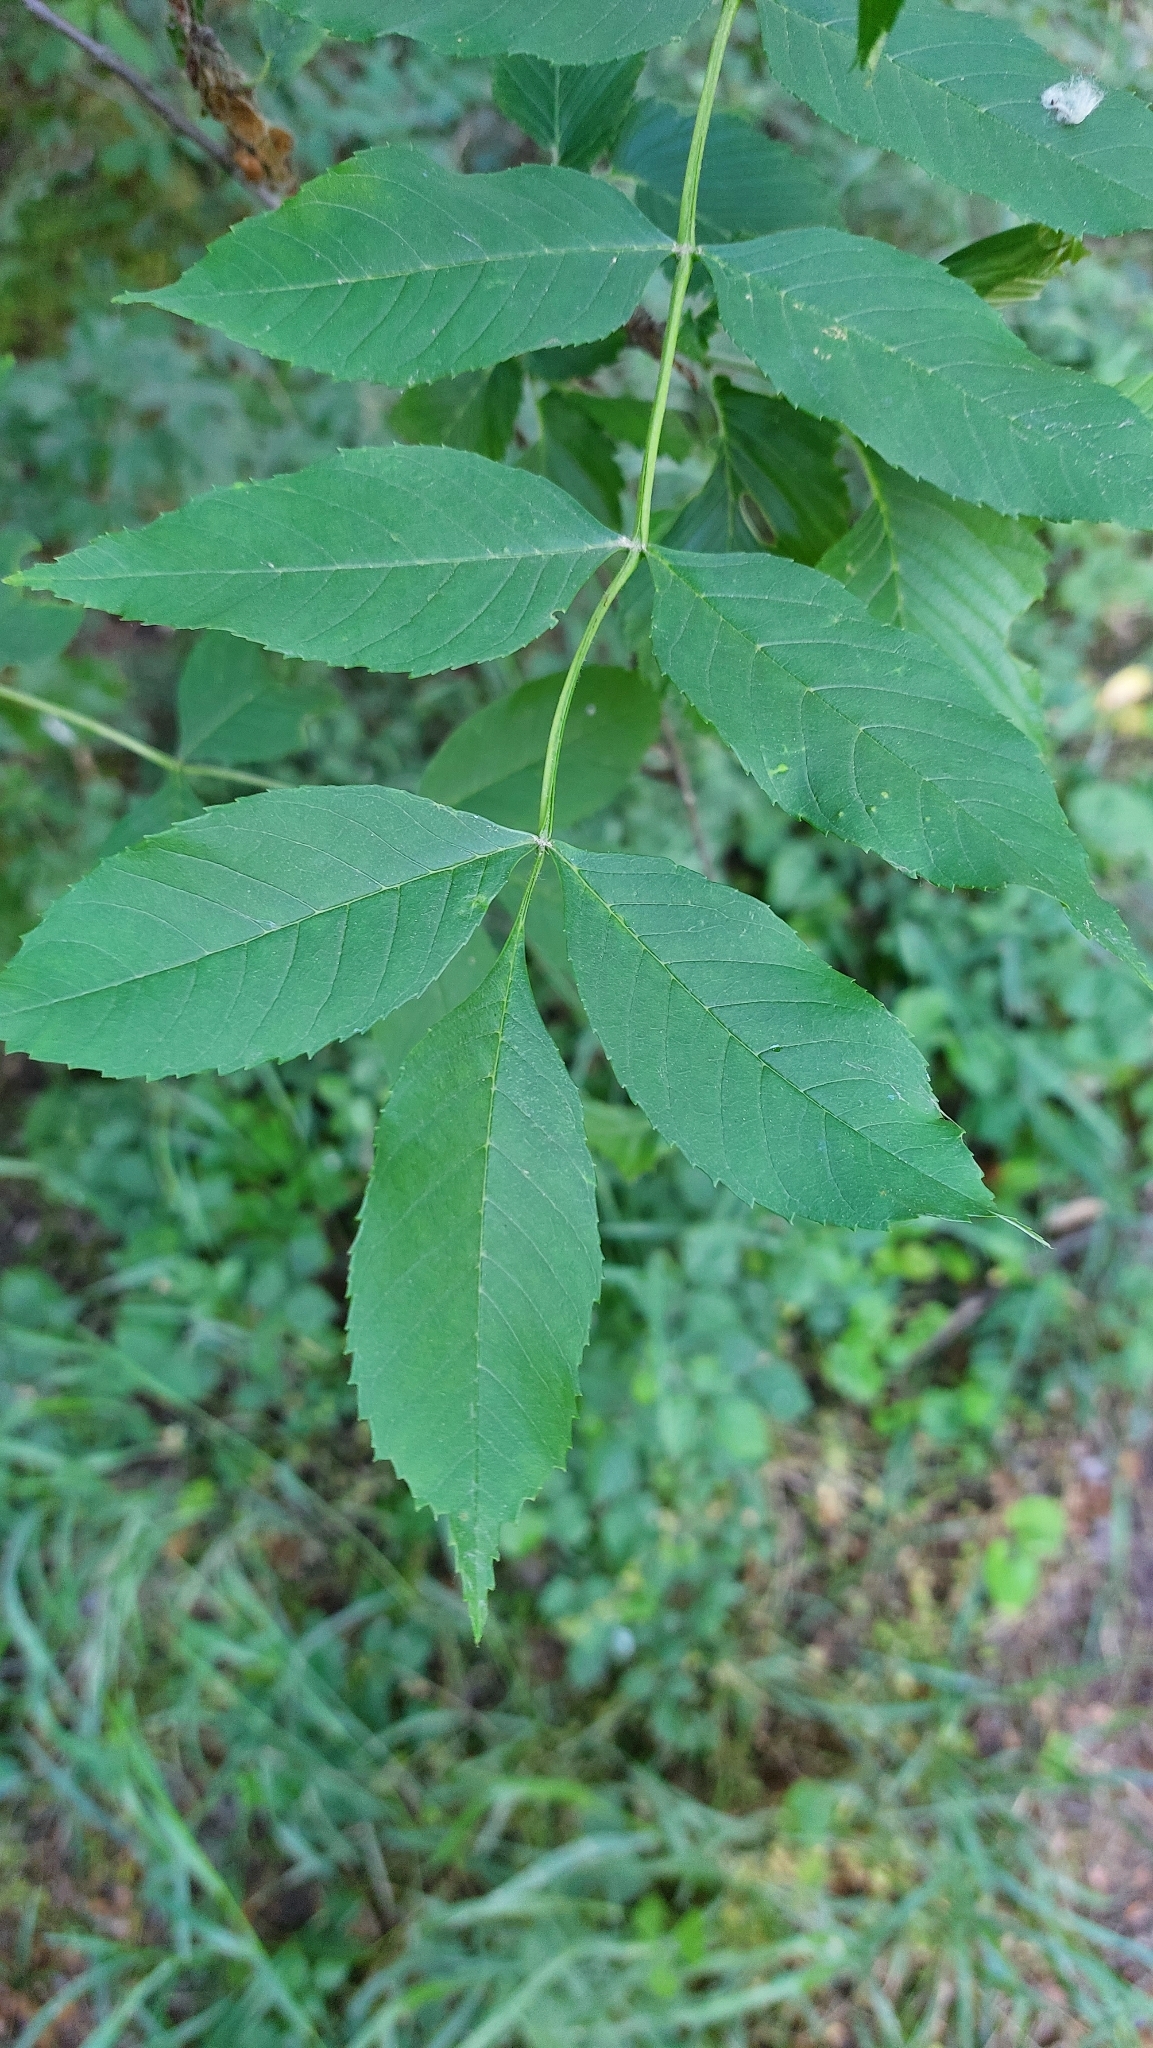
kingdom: Plantae
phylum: Tracheophyta
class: Magnoliopsida
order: Lamiales
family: Oleaceae
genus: Fraxinus
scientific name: Fraxinus excelsior
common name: European ash
